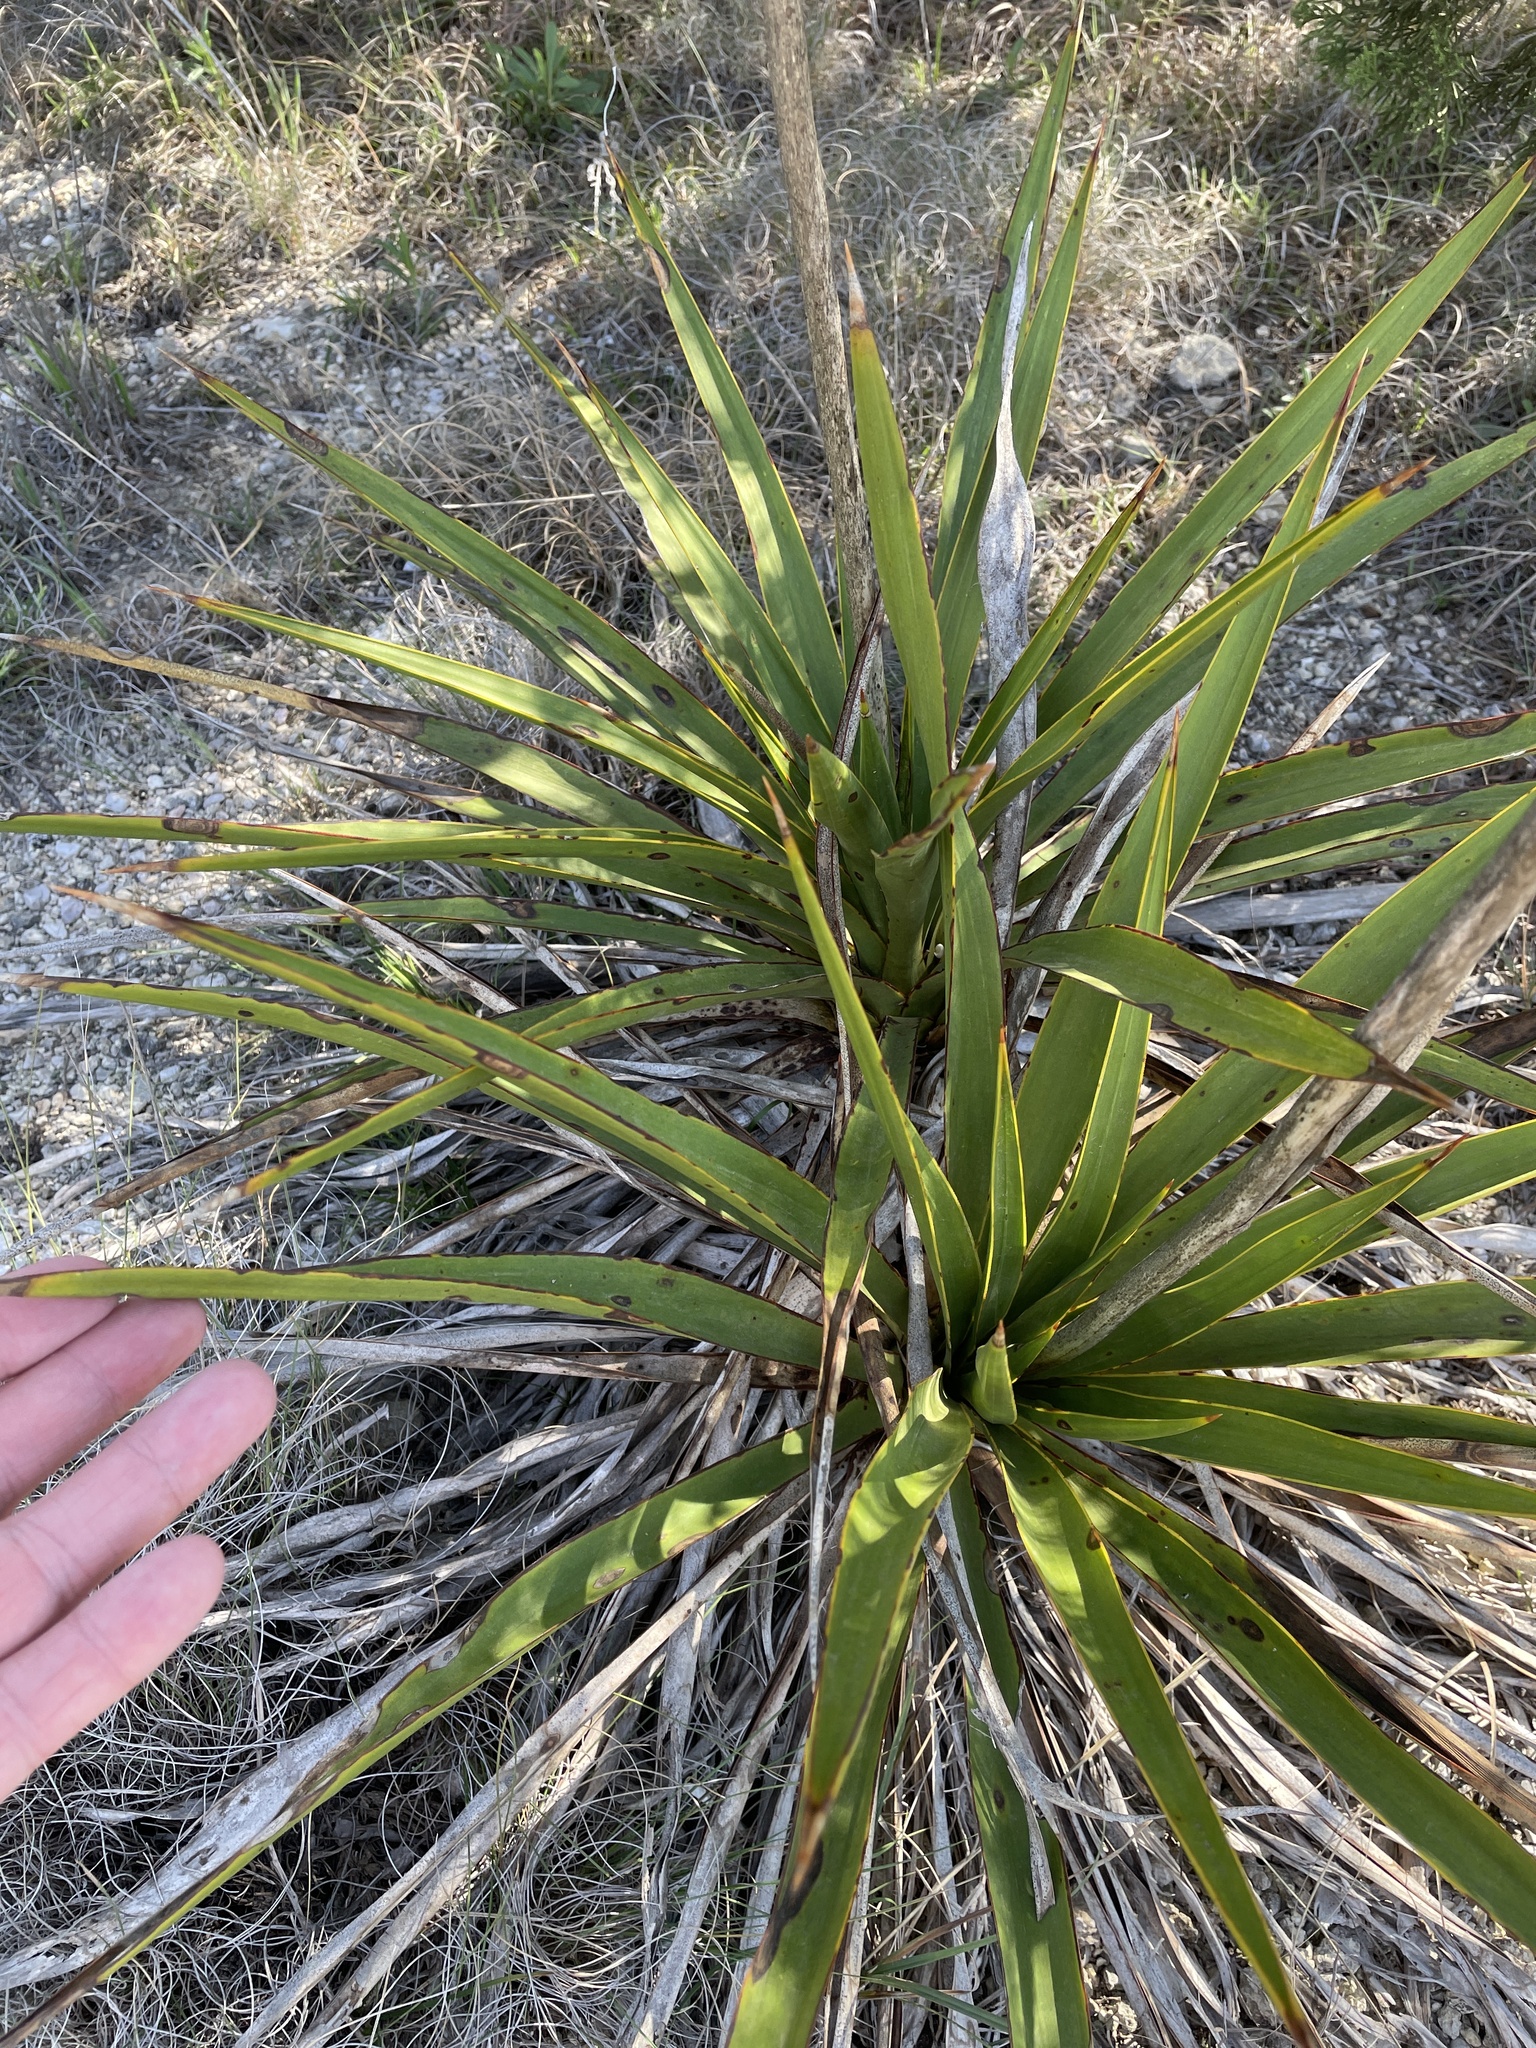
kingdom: Plantae
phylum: Tracheophyta
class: Liliopsida
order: Asparagales
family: Asparagaceae
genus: Yucca
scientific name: Yucca rupicola
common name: Twisted-leaf spanish-dagger
